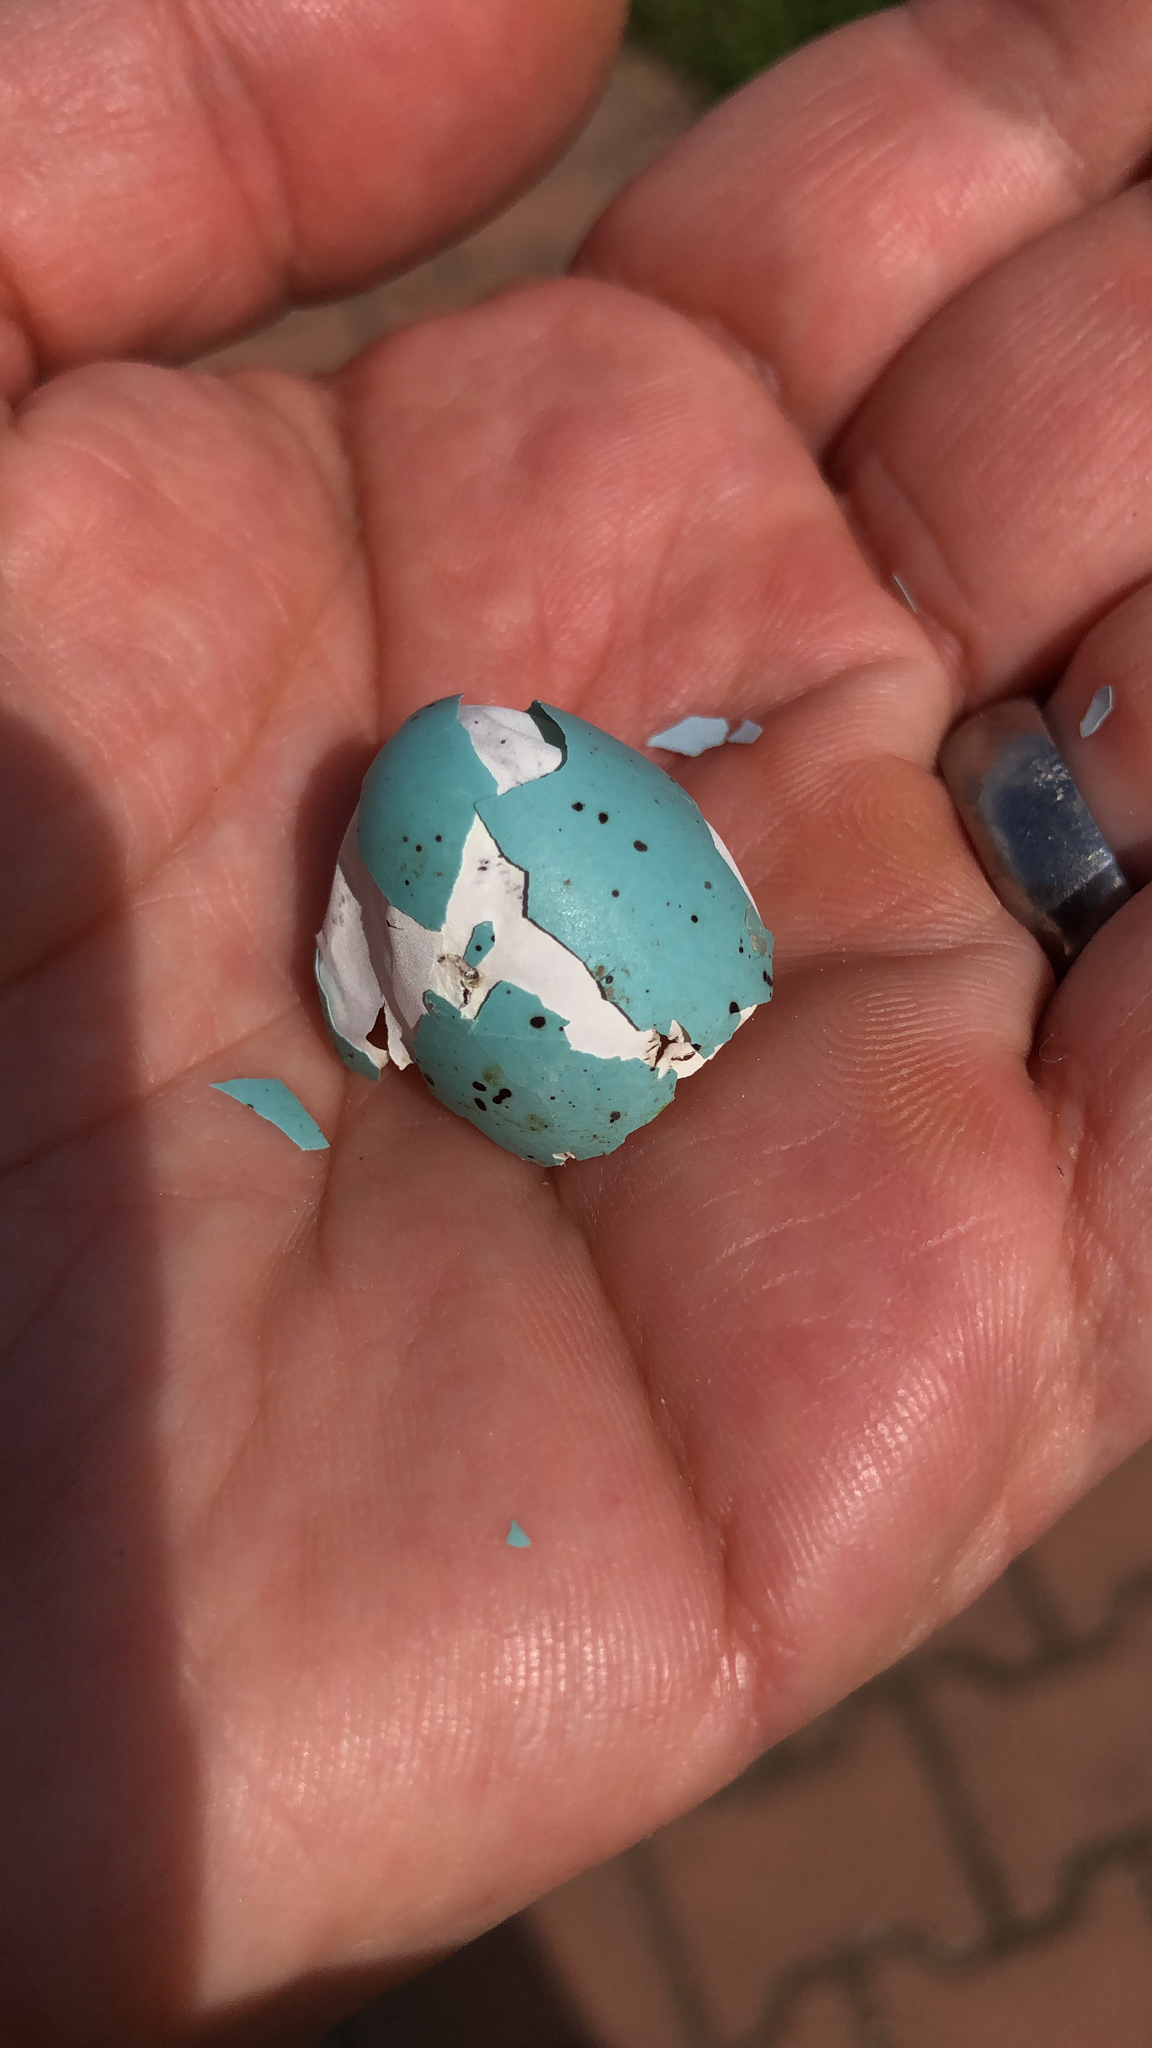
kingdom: Animalia
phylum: Chordata
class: Aves
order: Passeriformes
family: Turdidae
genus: Turdus
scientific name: Turdus philomelos
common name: Song thrush
